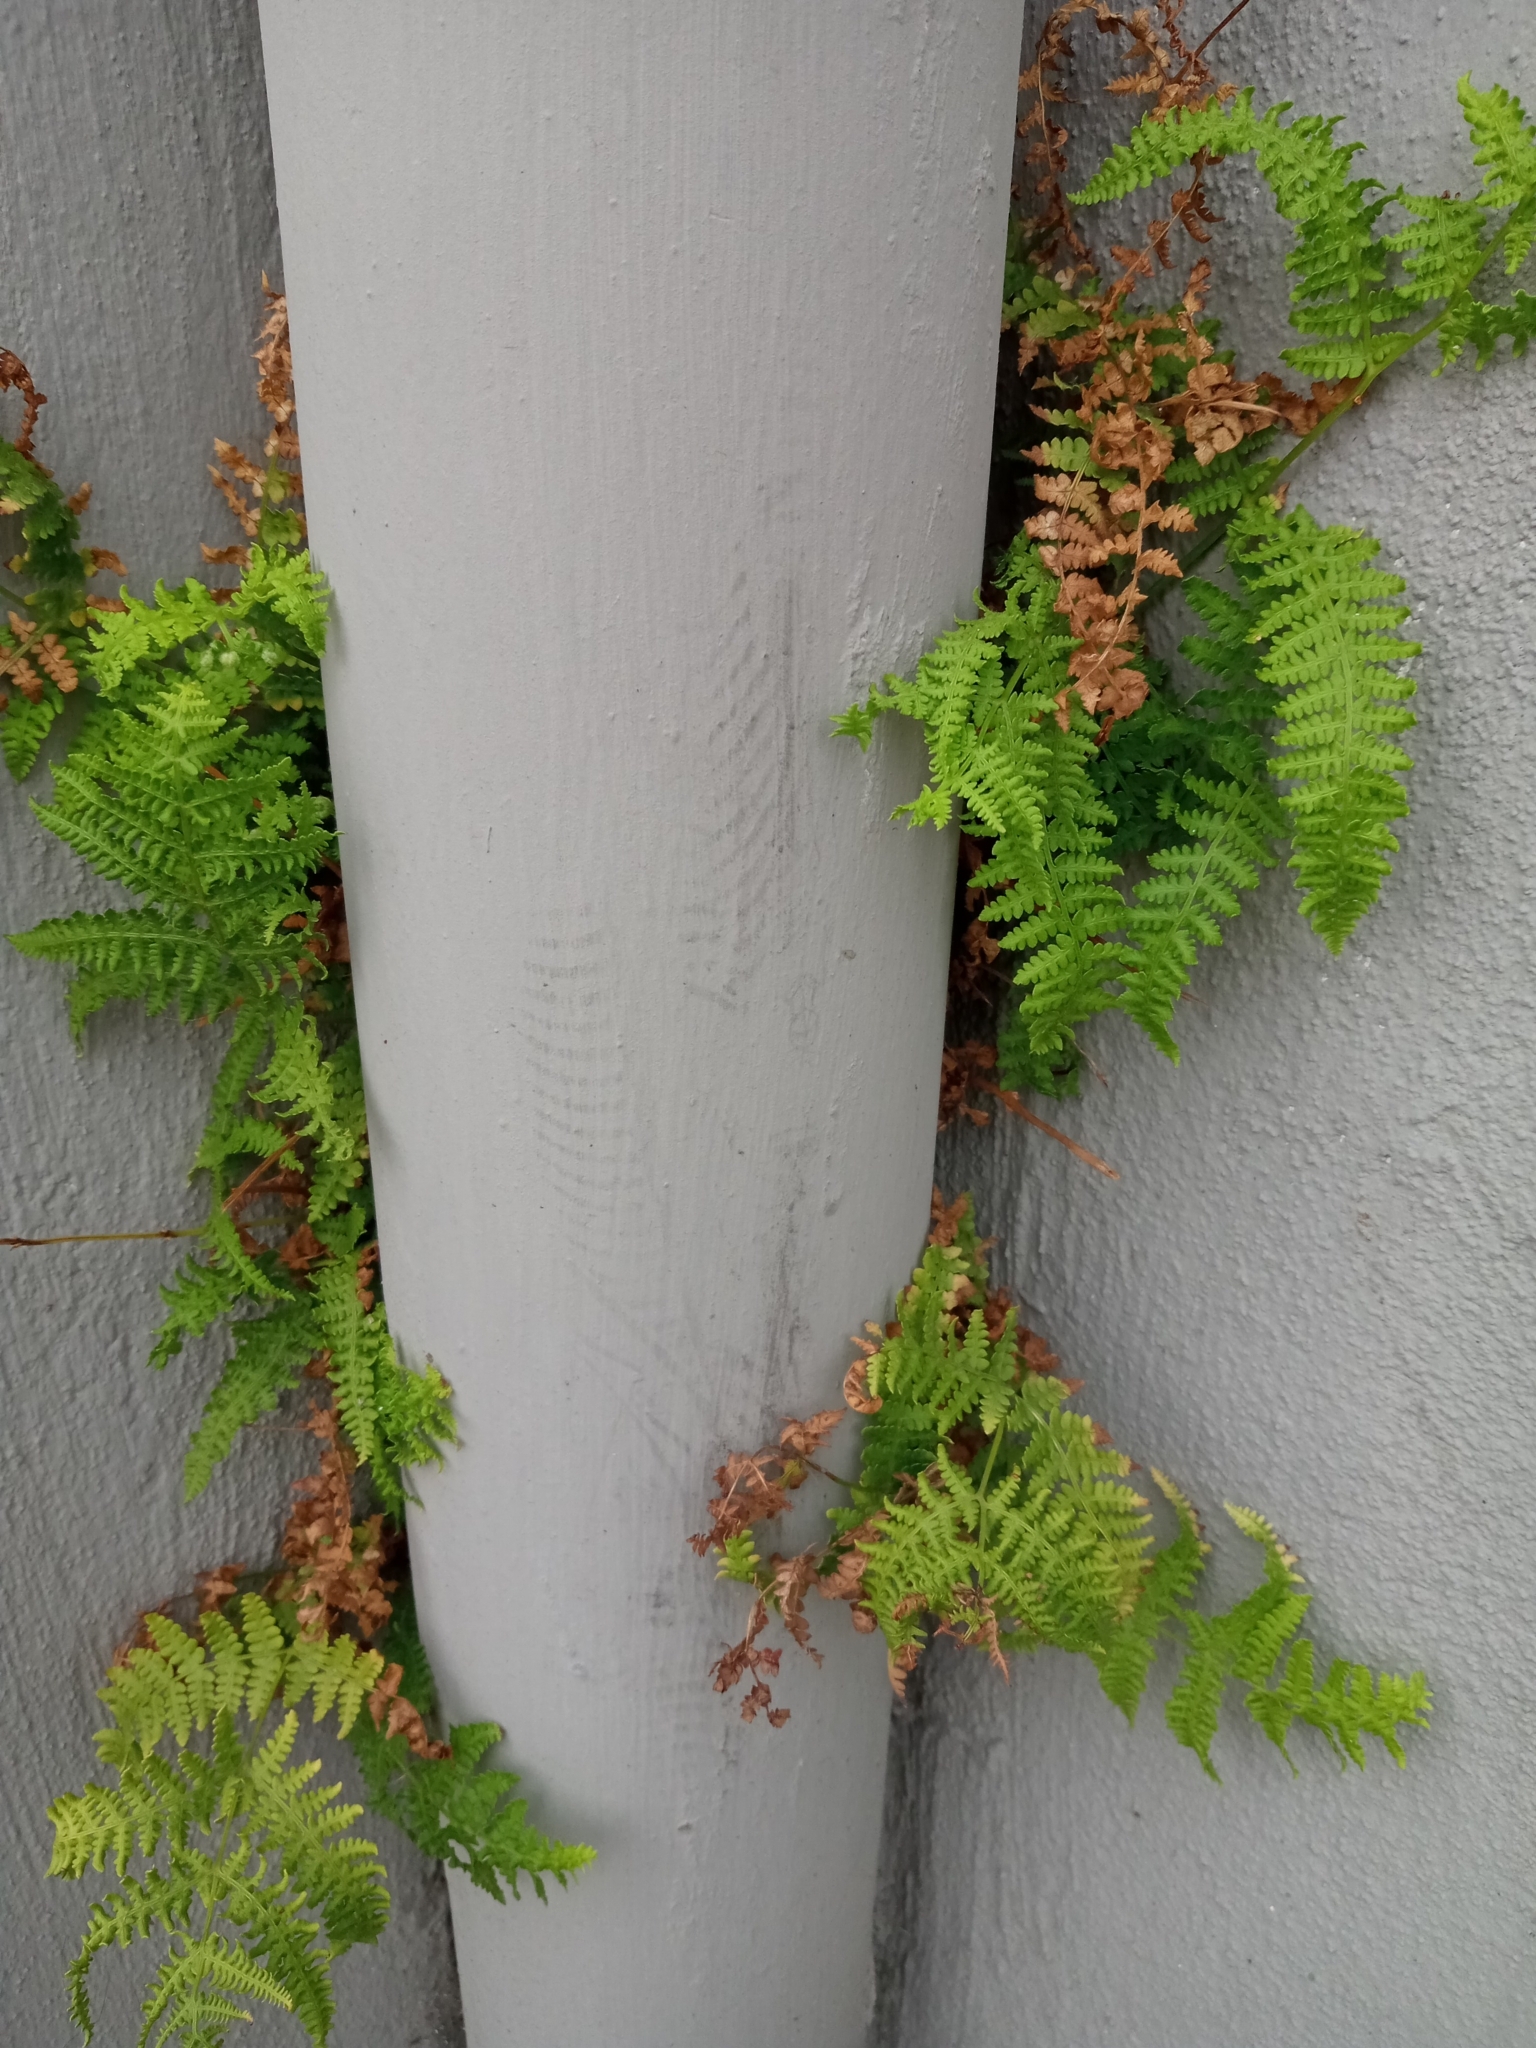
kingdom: Plantae
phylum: Tracheophyta
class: Polypodiopsida
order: Polypodiales
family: Dennstaedtiaceae
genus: Pteridium
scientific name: Pteridium aquilinum
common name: Bracken
